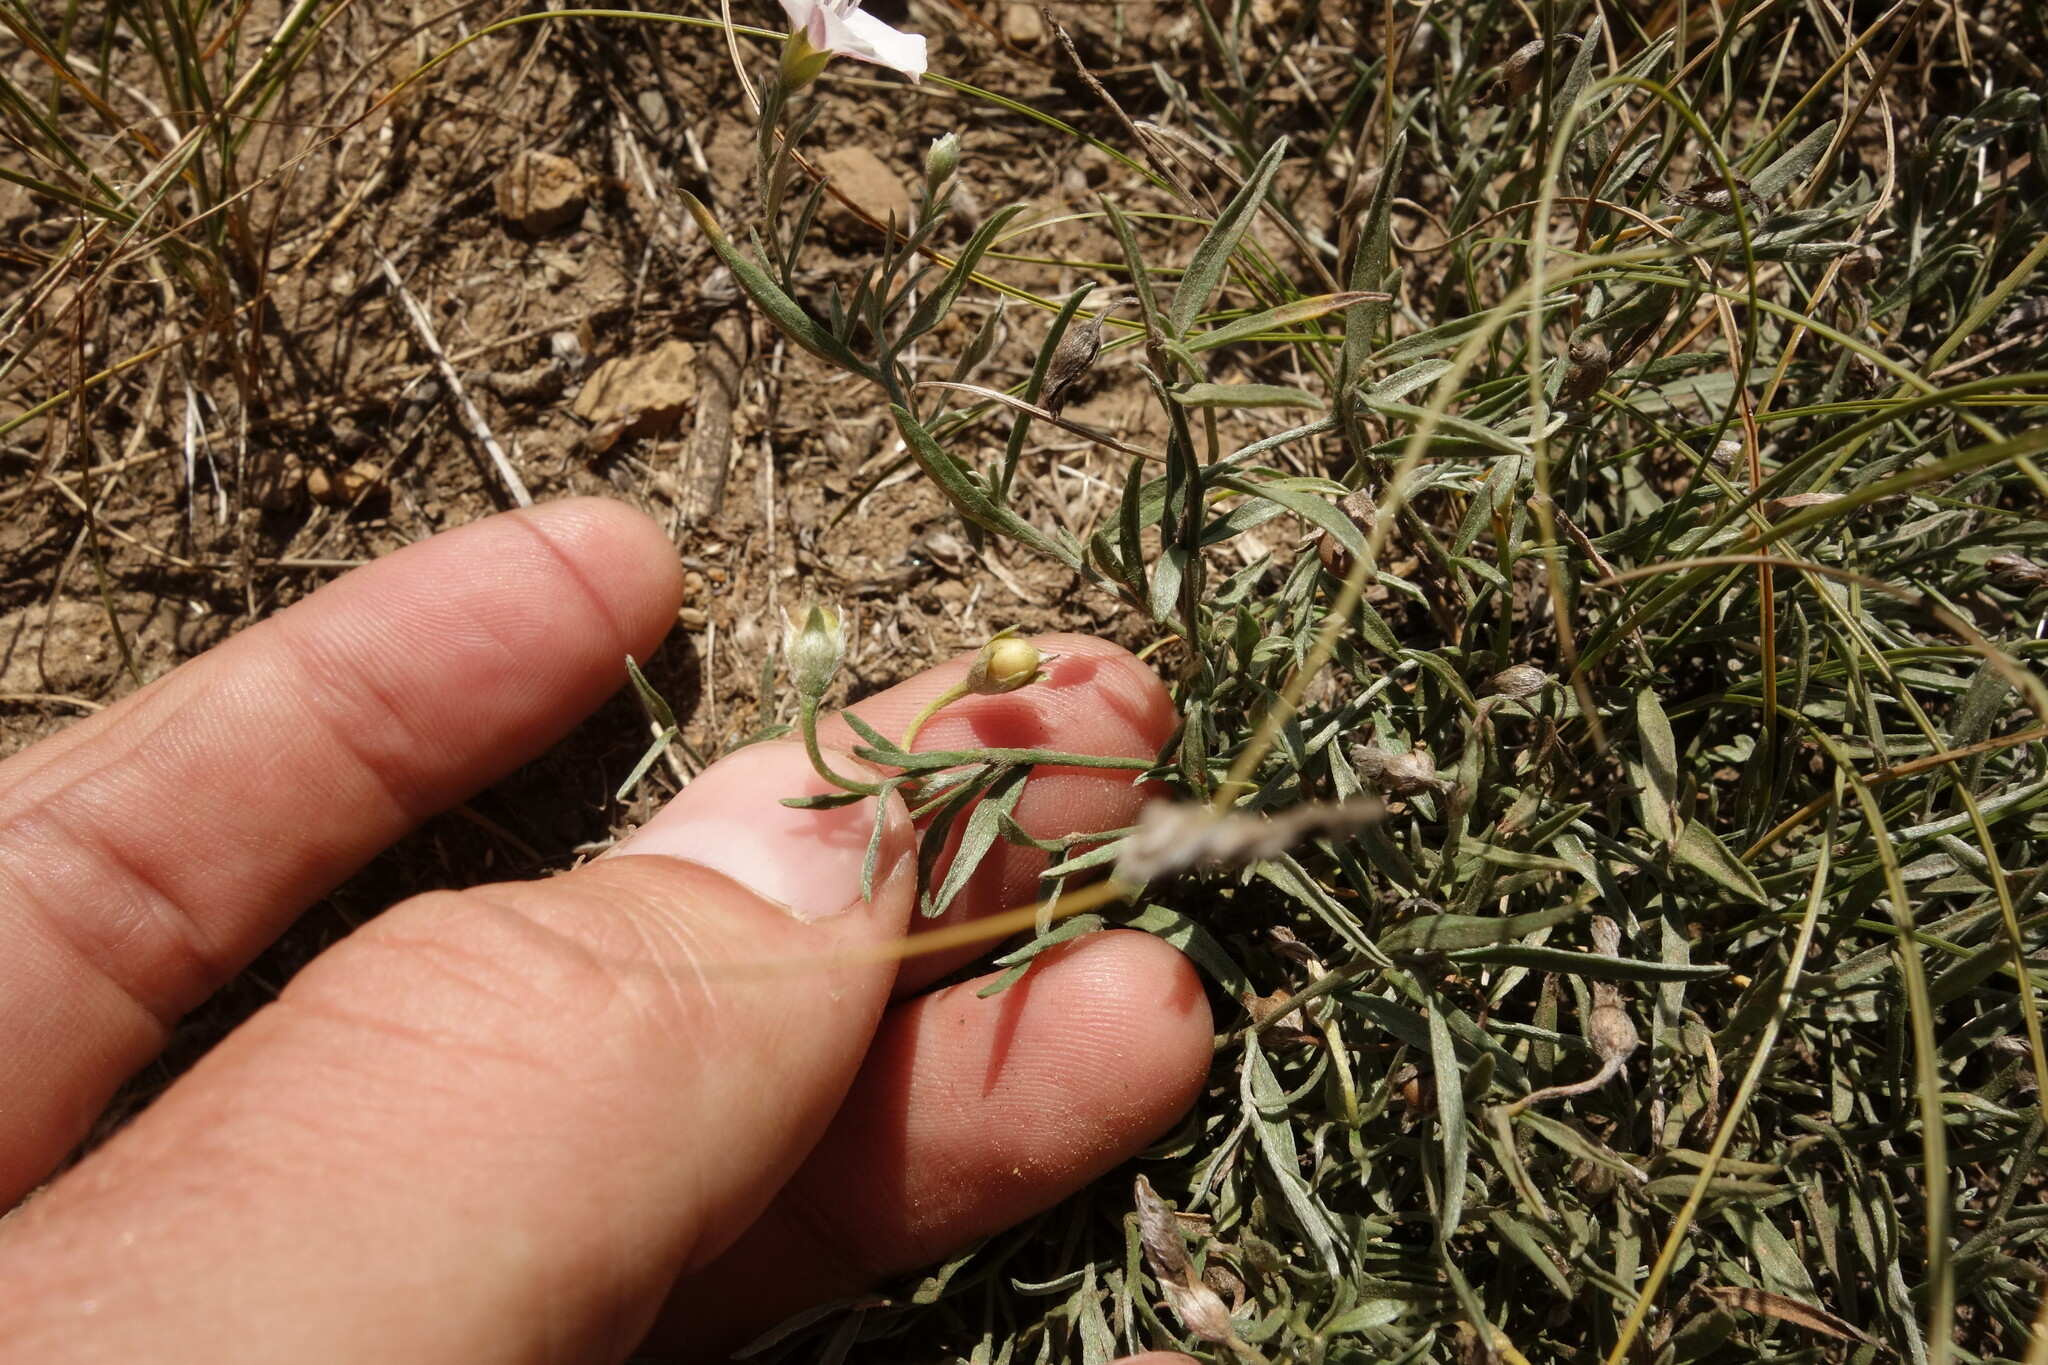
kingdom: Plantae
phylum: Tracheophyta
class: Magnoliopsida
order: Solanales
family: Convolvulaceae
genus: Convolvulus
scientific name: Convolvulus ammannii
